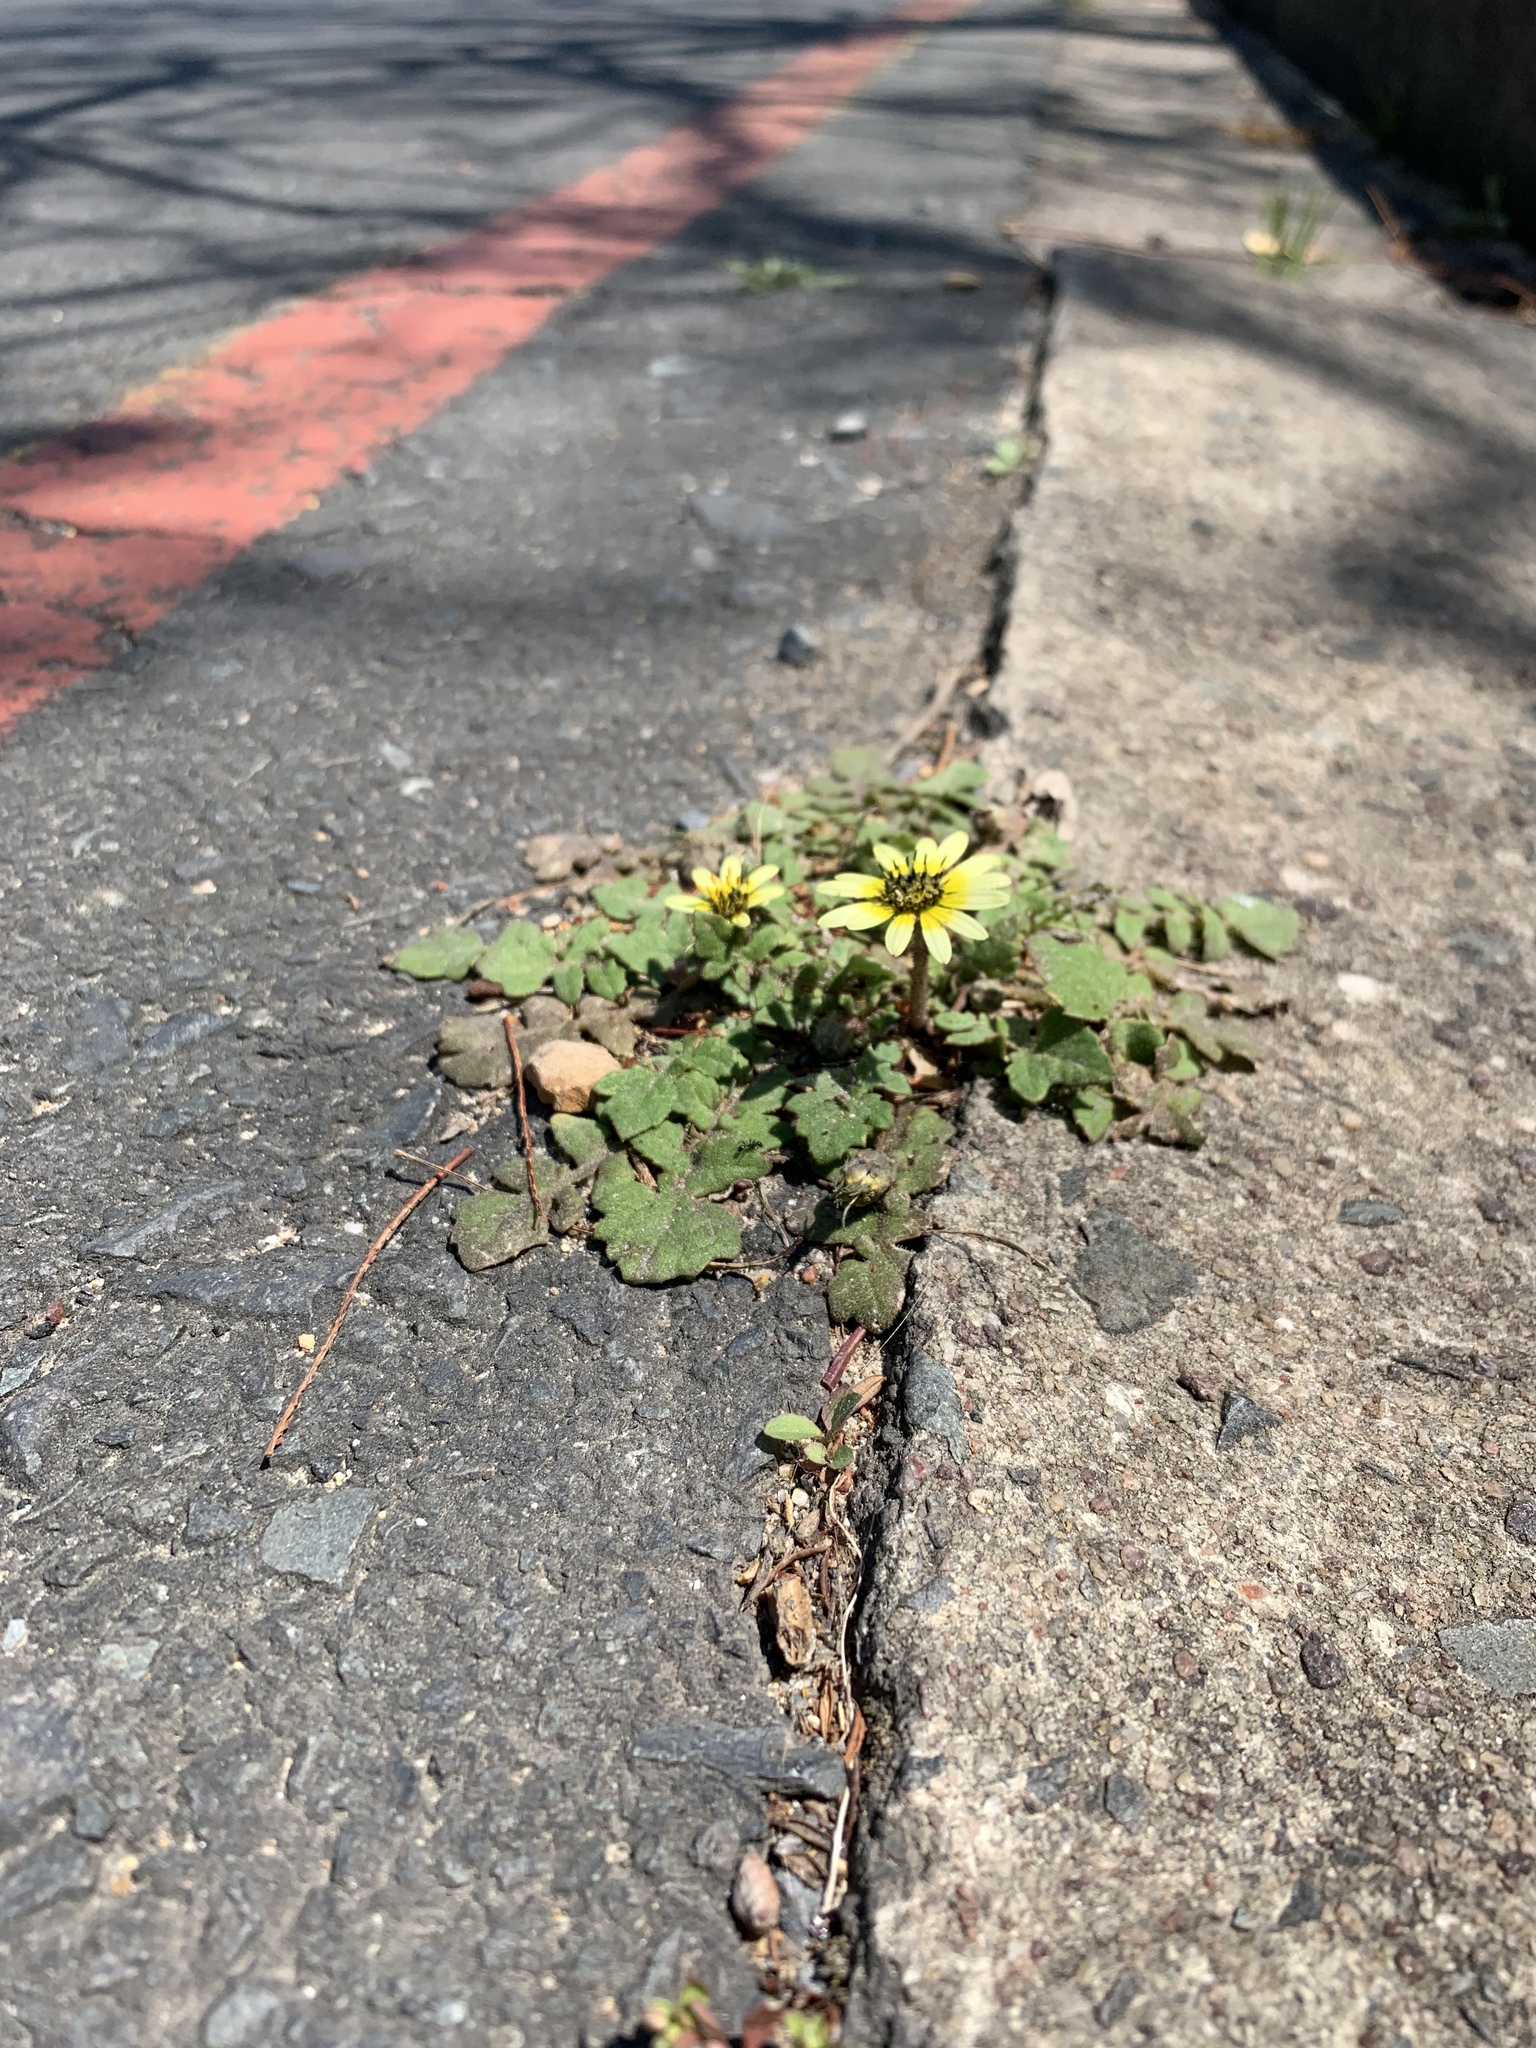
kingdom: Plantae
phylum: Tracheophyta
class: Magnoliopsida
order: Asterales
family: Asteraceae
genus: Arctotheca
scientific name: Arctotheca calendula
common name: Capeweed
